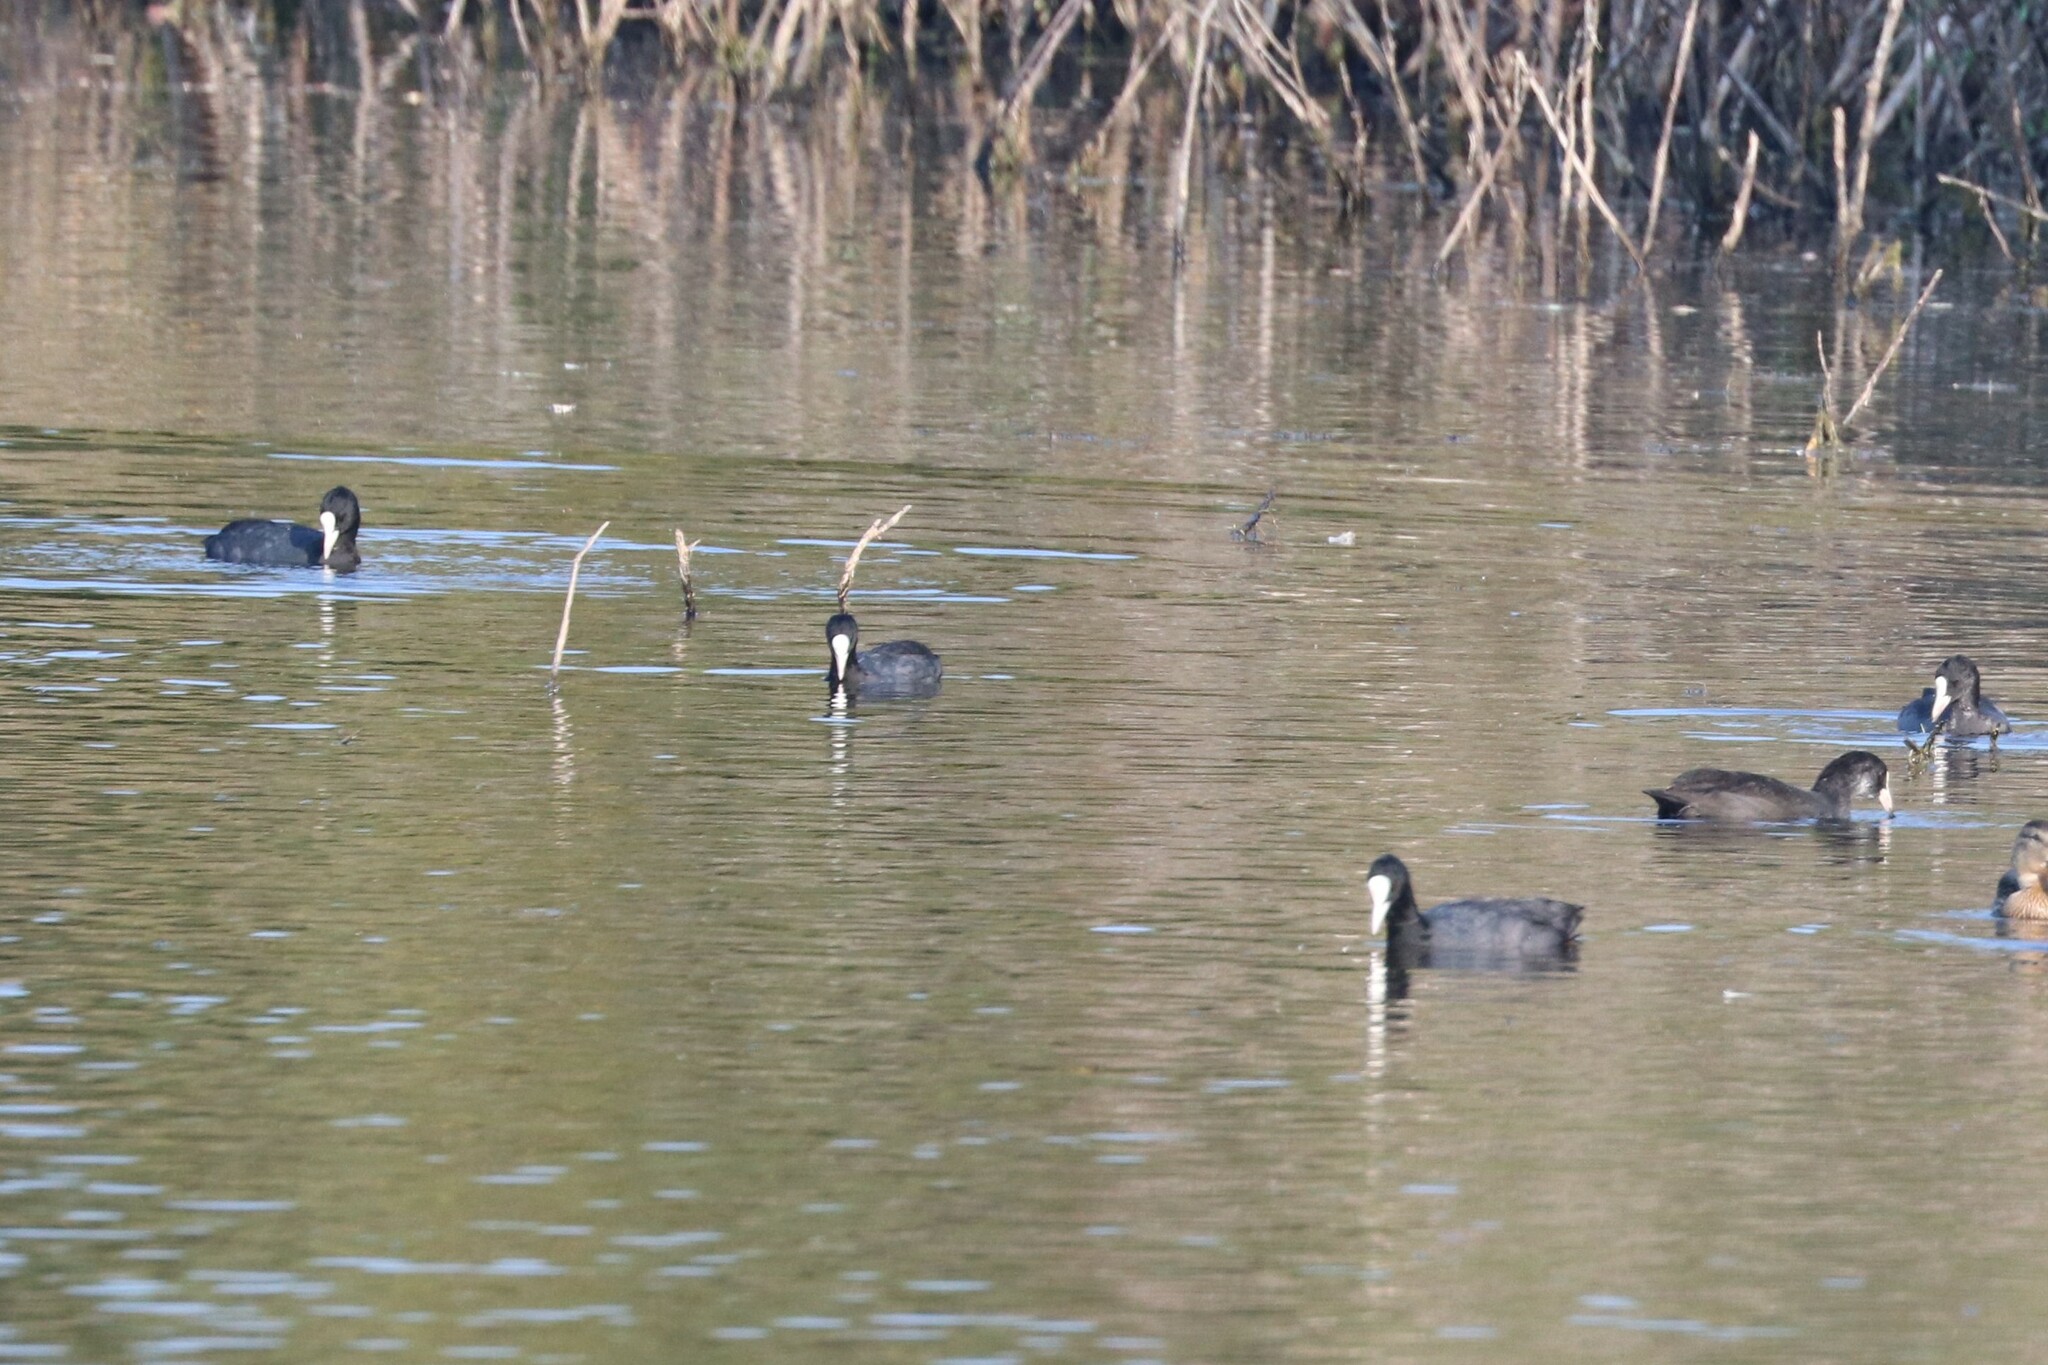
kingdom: Animalia
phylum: Chordata
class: Aves
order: Gruiformes
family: Rallidae
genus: Fulica
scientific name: Fulica atra
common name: Eurasian coot
